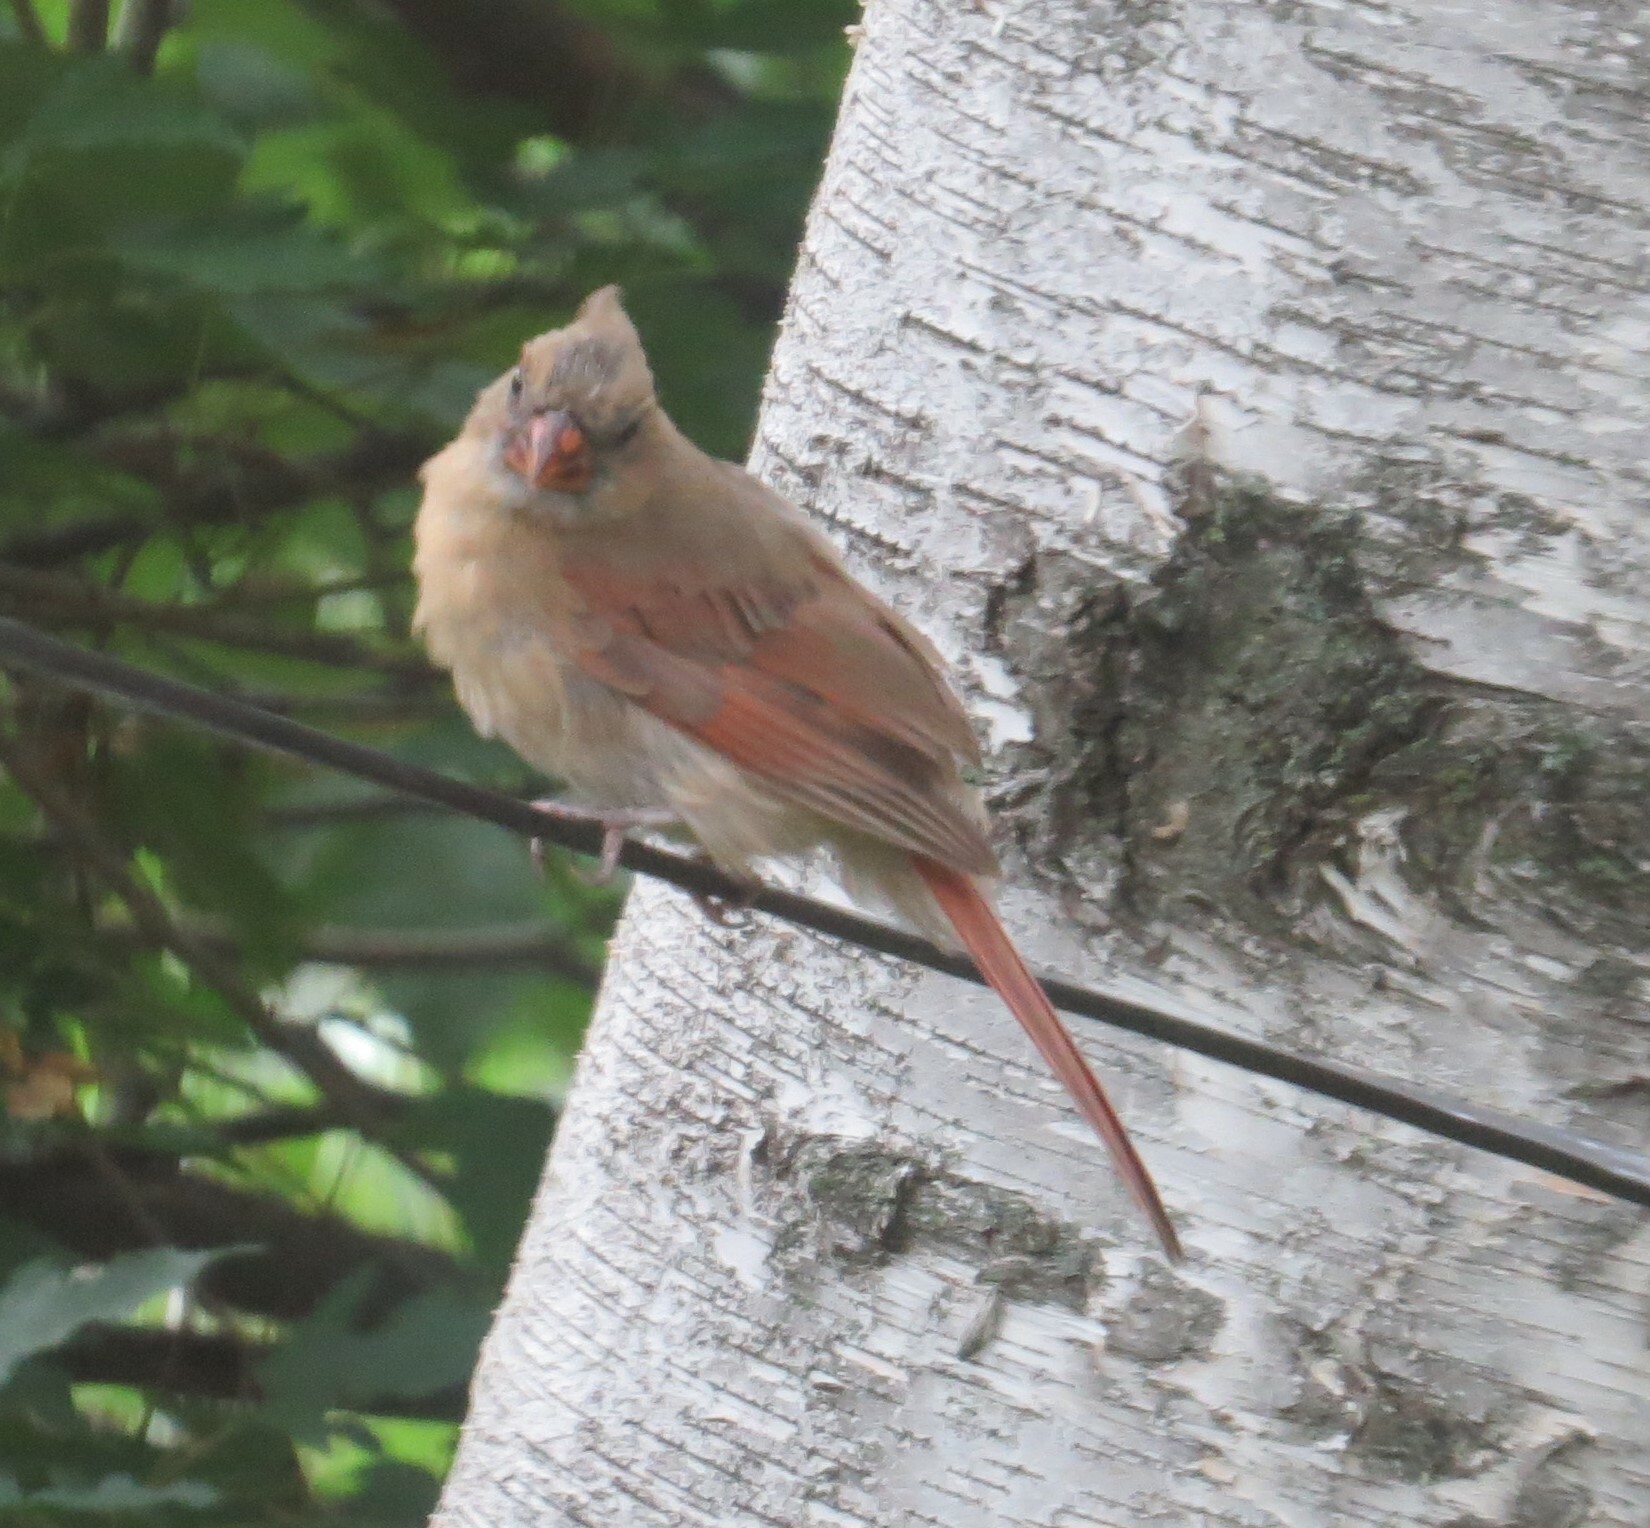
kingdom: Animalia
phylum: Chordata
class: Aves
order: Passeriformes
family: Cardinalidae
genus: Cardinalis
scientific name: Cardinalis cardinalis
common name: Northern cardinal
